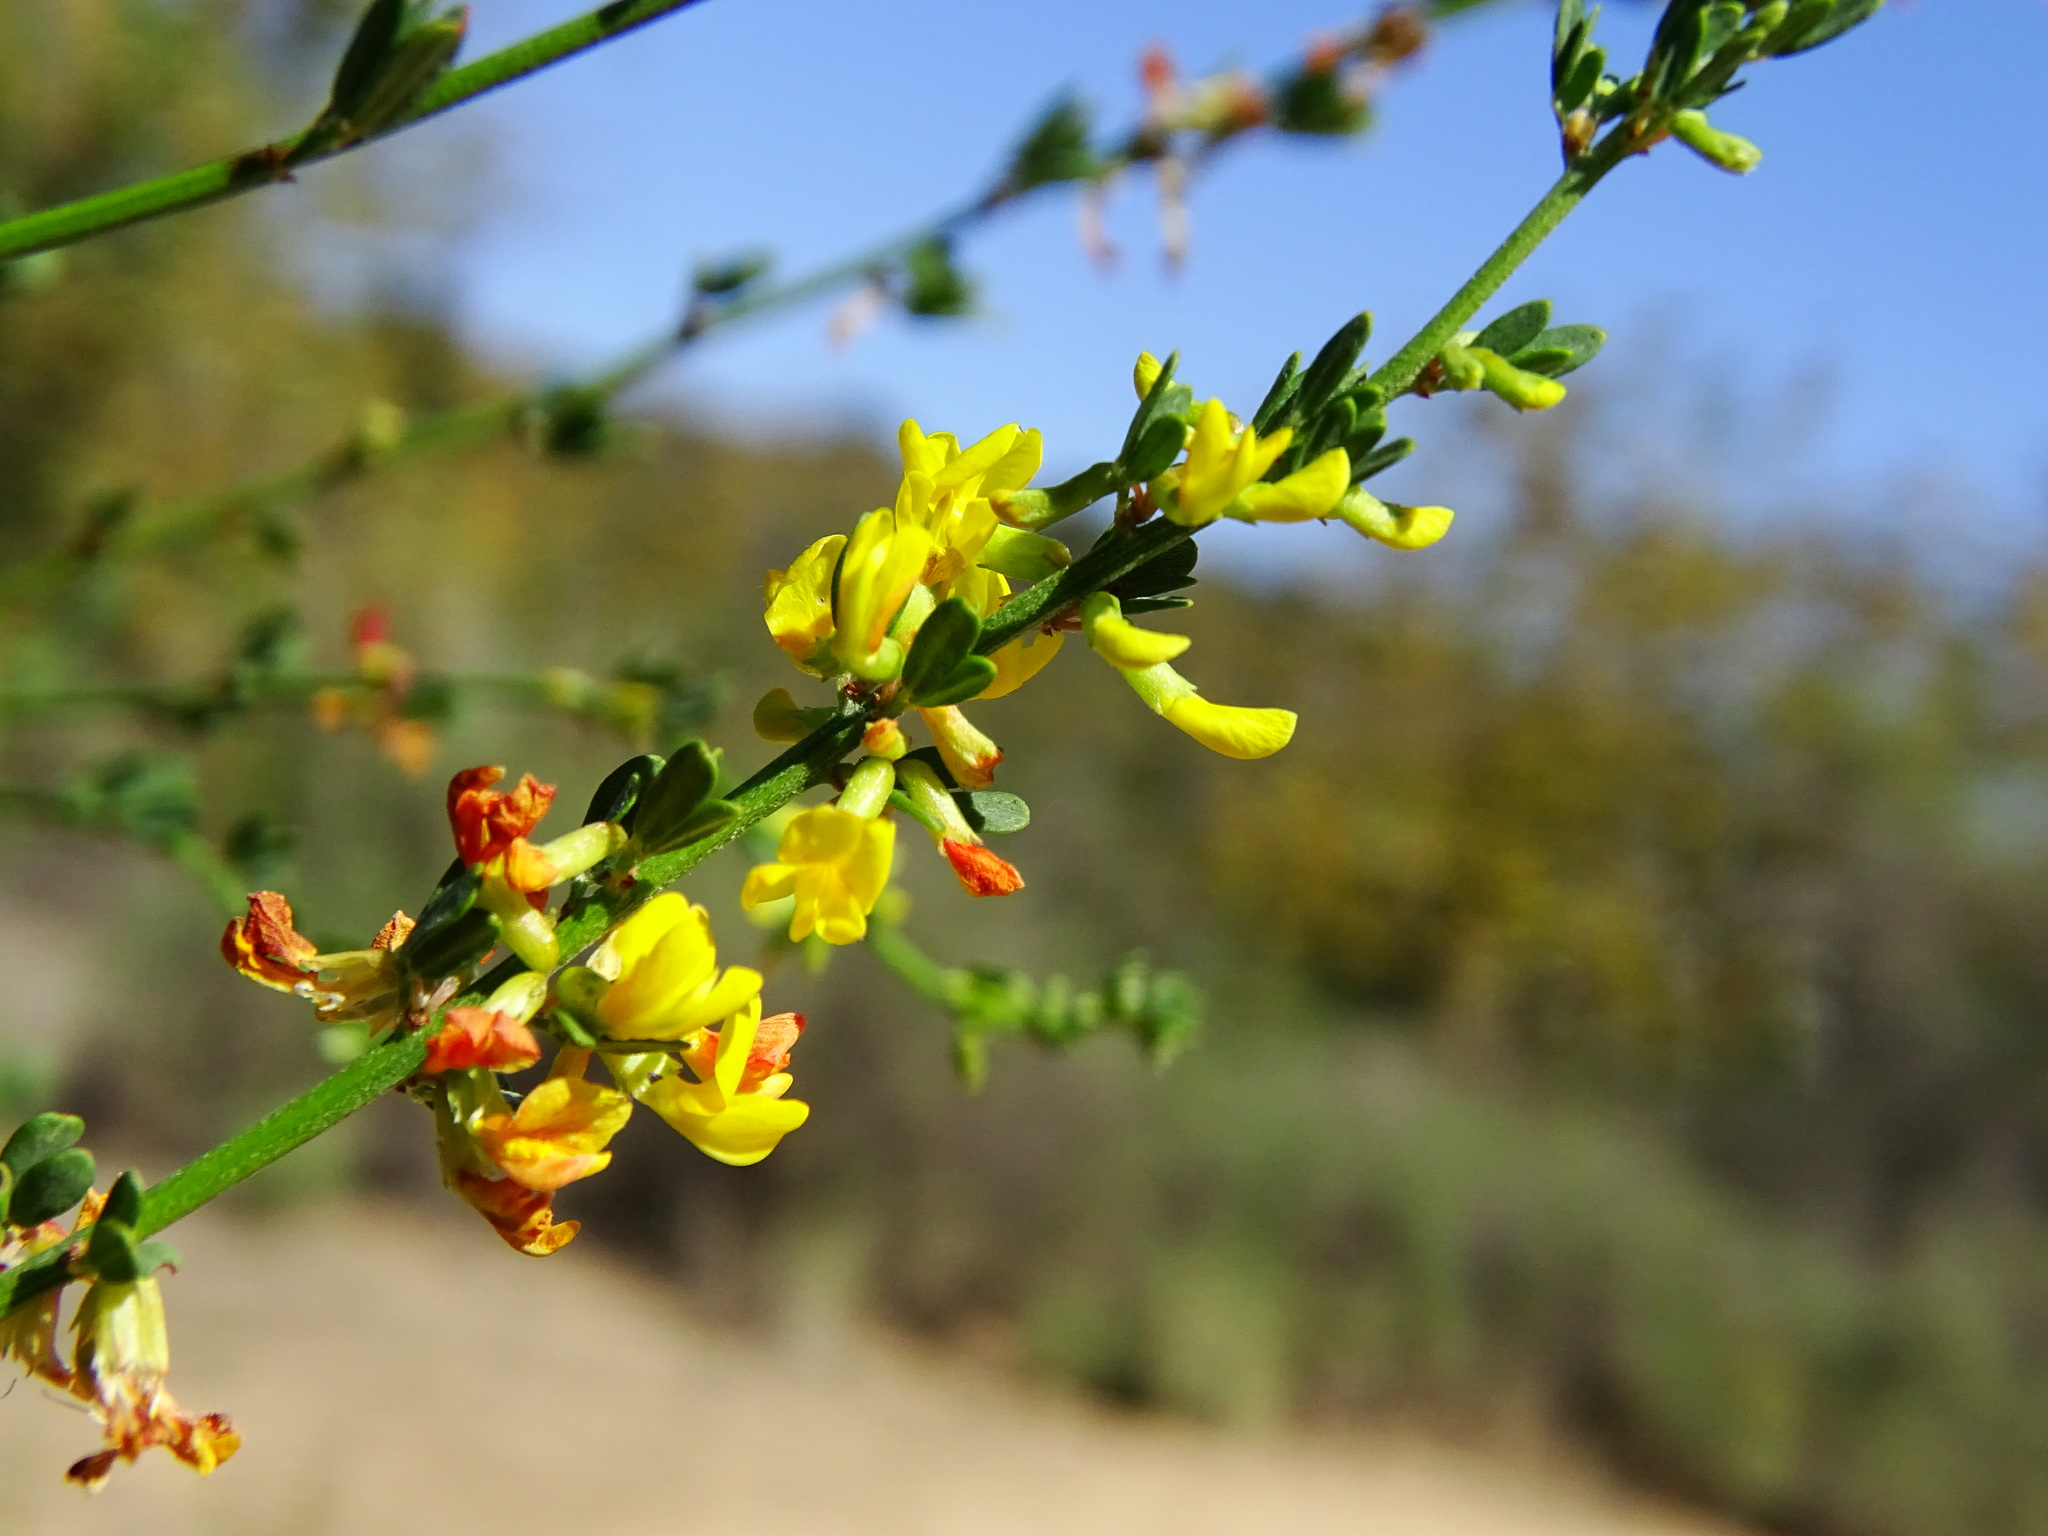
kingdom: Plantae
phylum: Tracheophyta
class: Magnoliopsida
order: Fabales
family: Fabaceae
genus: Acmispon
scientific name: Acmispon glaber
